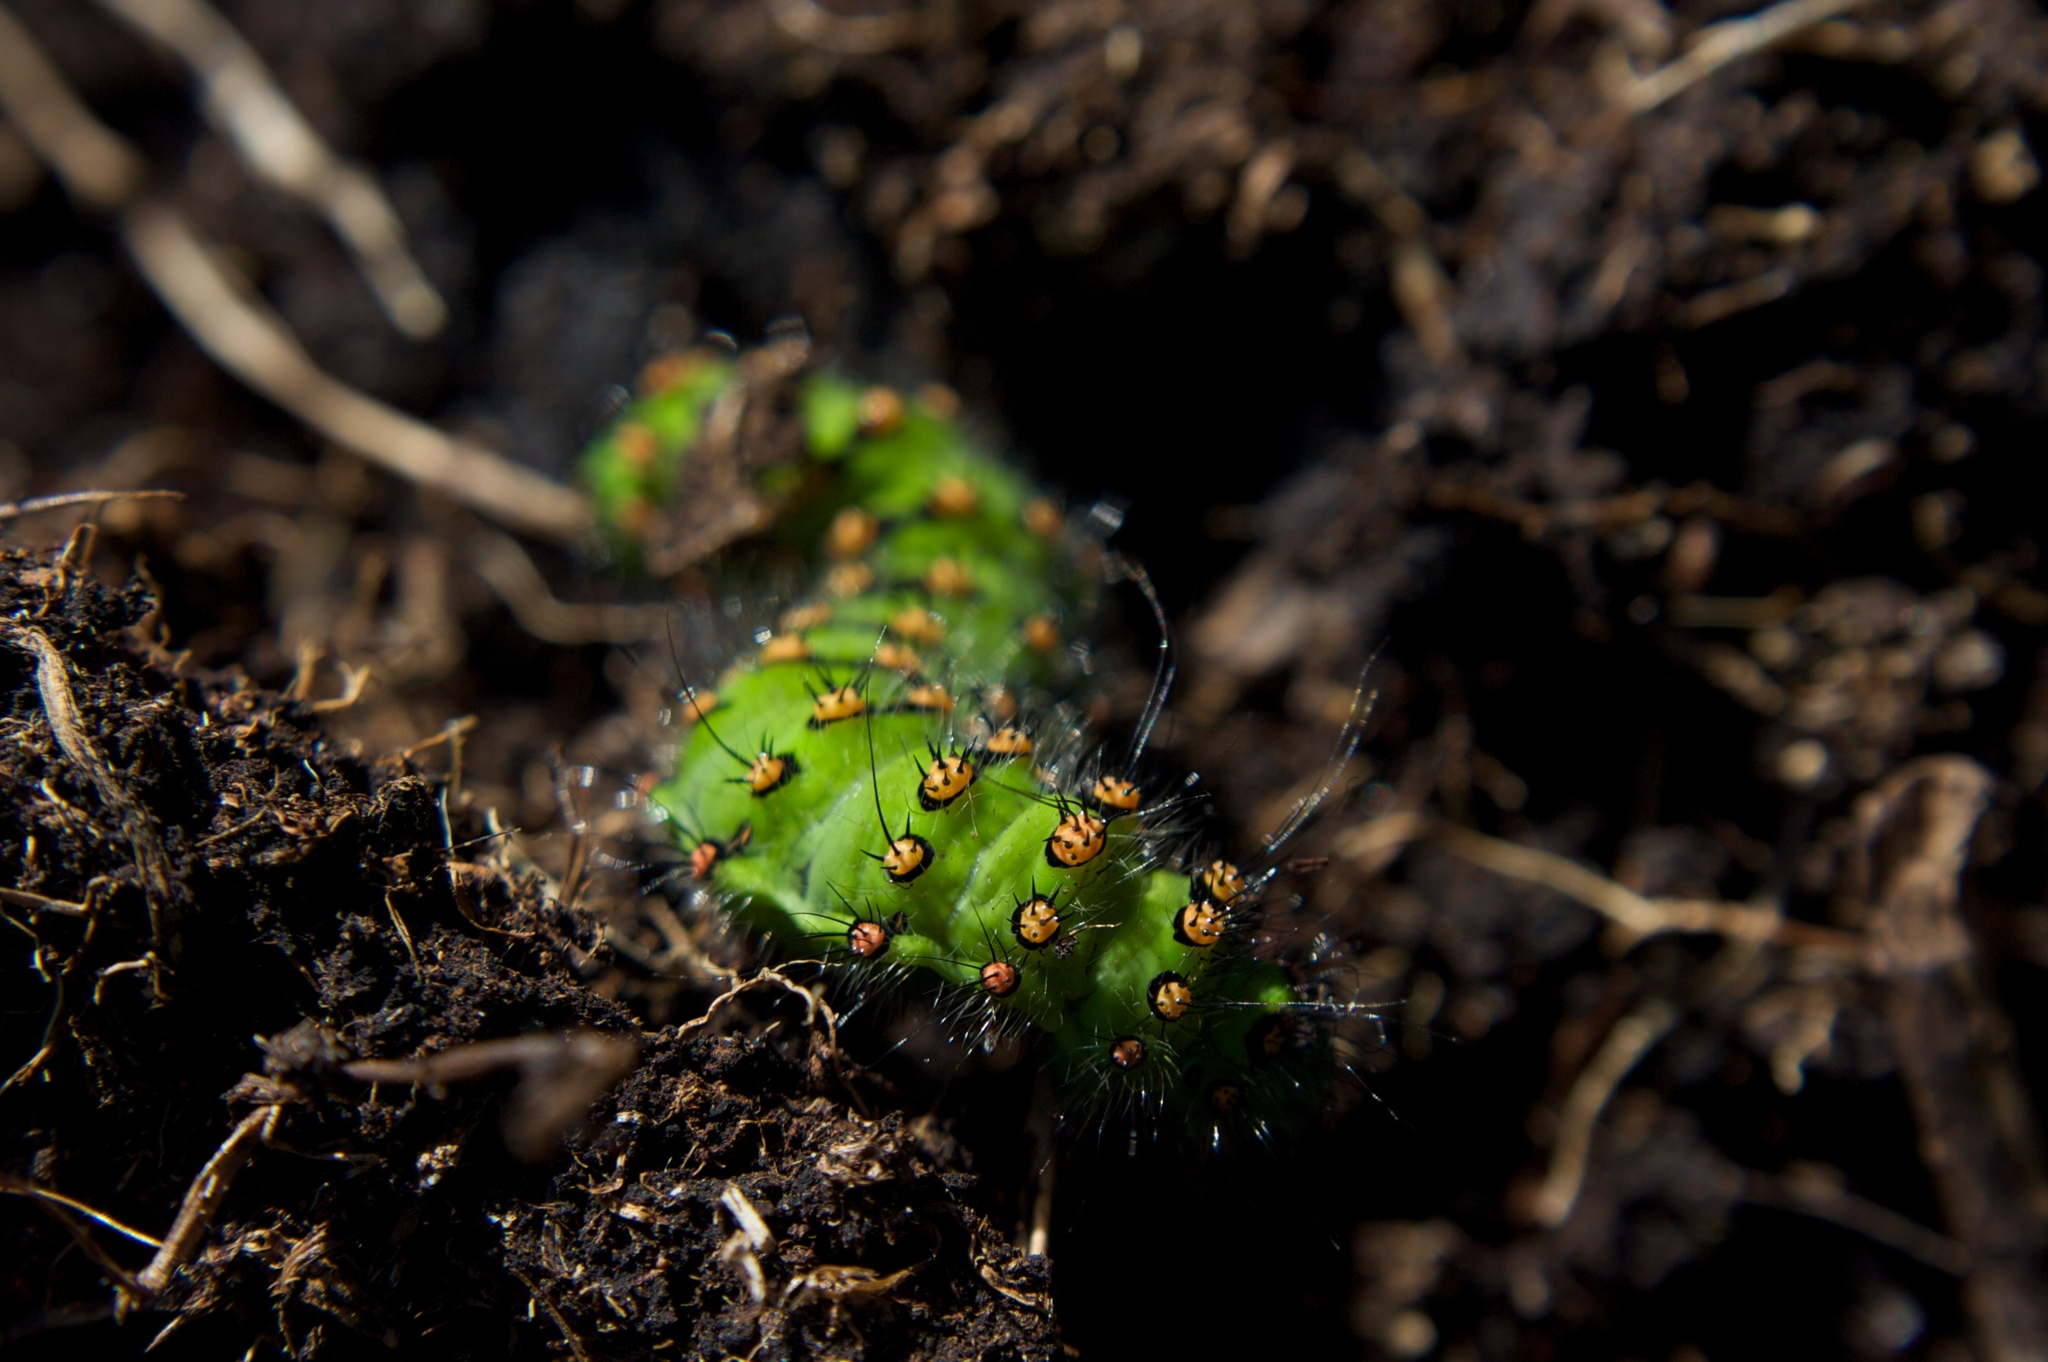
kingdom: Animalia
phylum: Arthropoda
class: Insecta
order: Lepidoptera
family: Saturniidae
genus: Saturnia
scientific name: Saturnia pavonia
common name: Emperor moth
